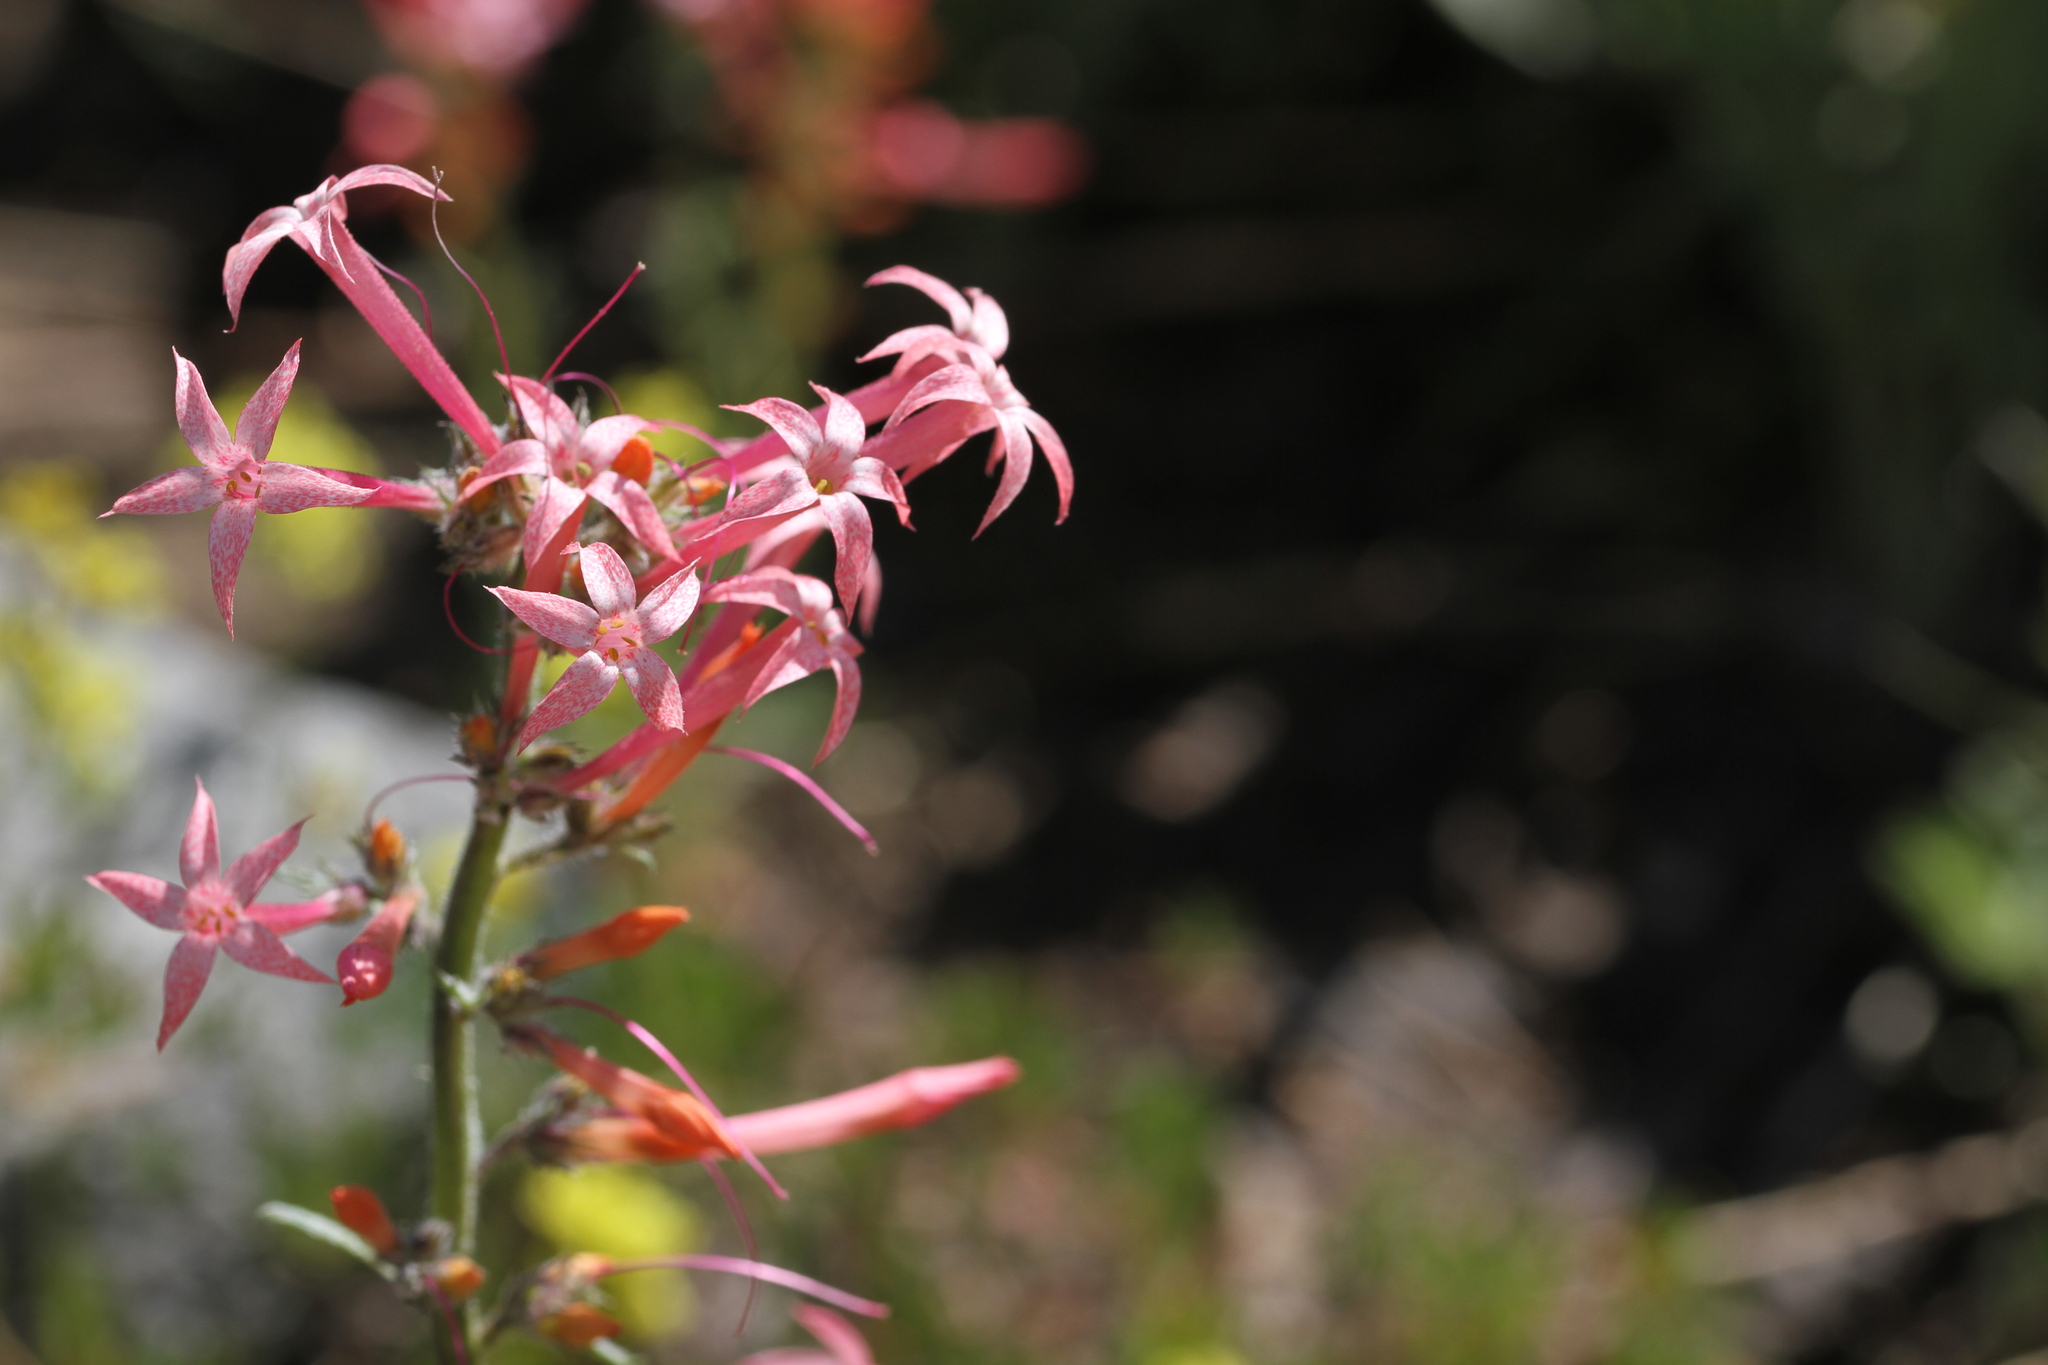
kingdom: Plantae
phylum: Tracheophyta
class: Magnoliopsida
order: Ericales
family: Polemoniaceae
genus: Ipomopsis
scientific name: Ipomopsis tenuituba
